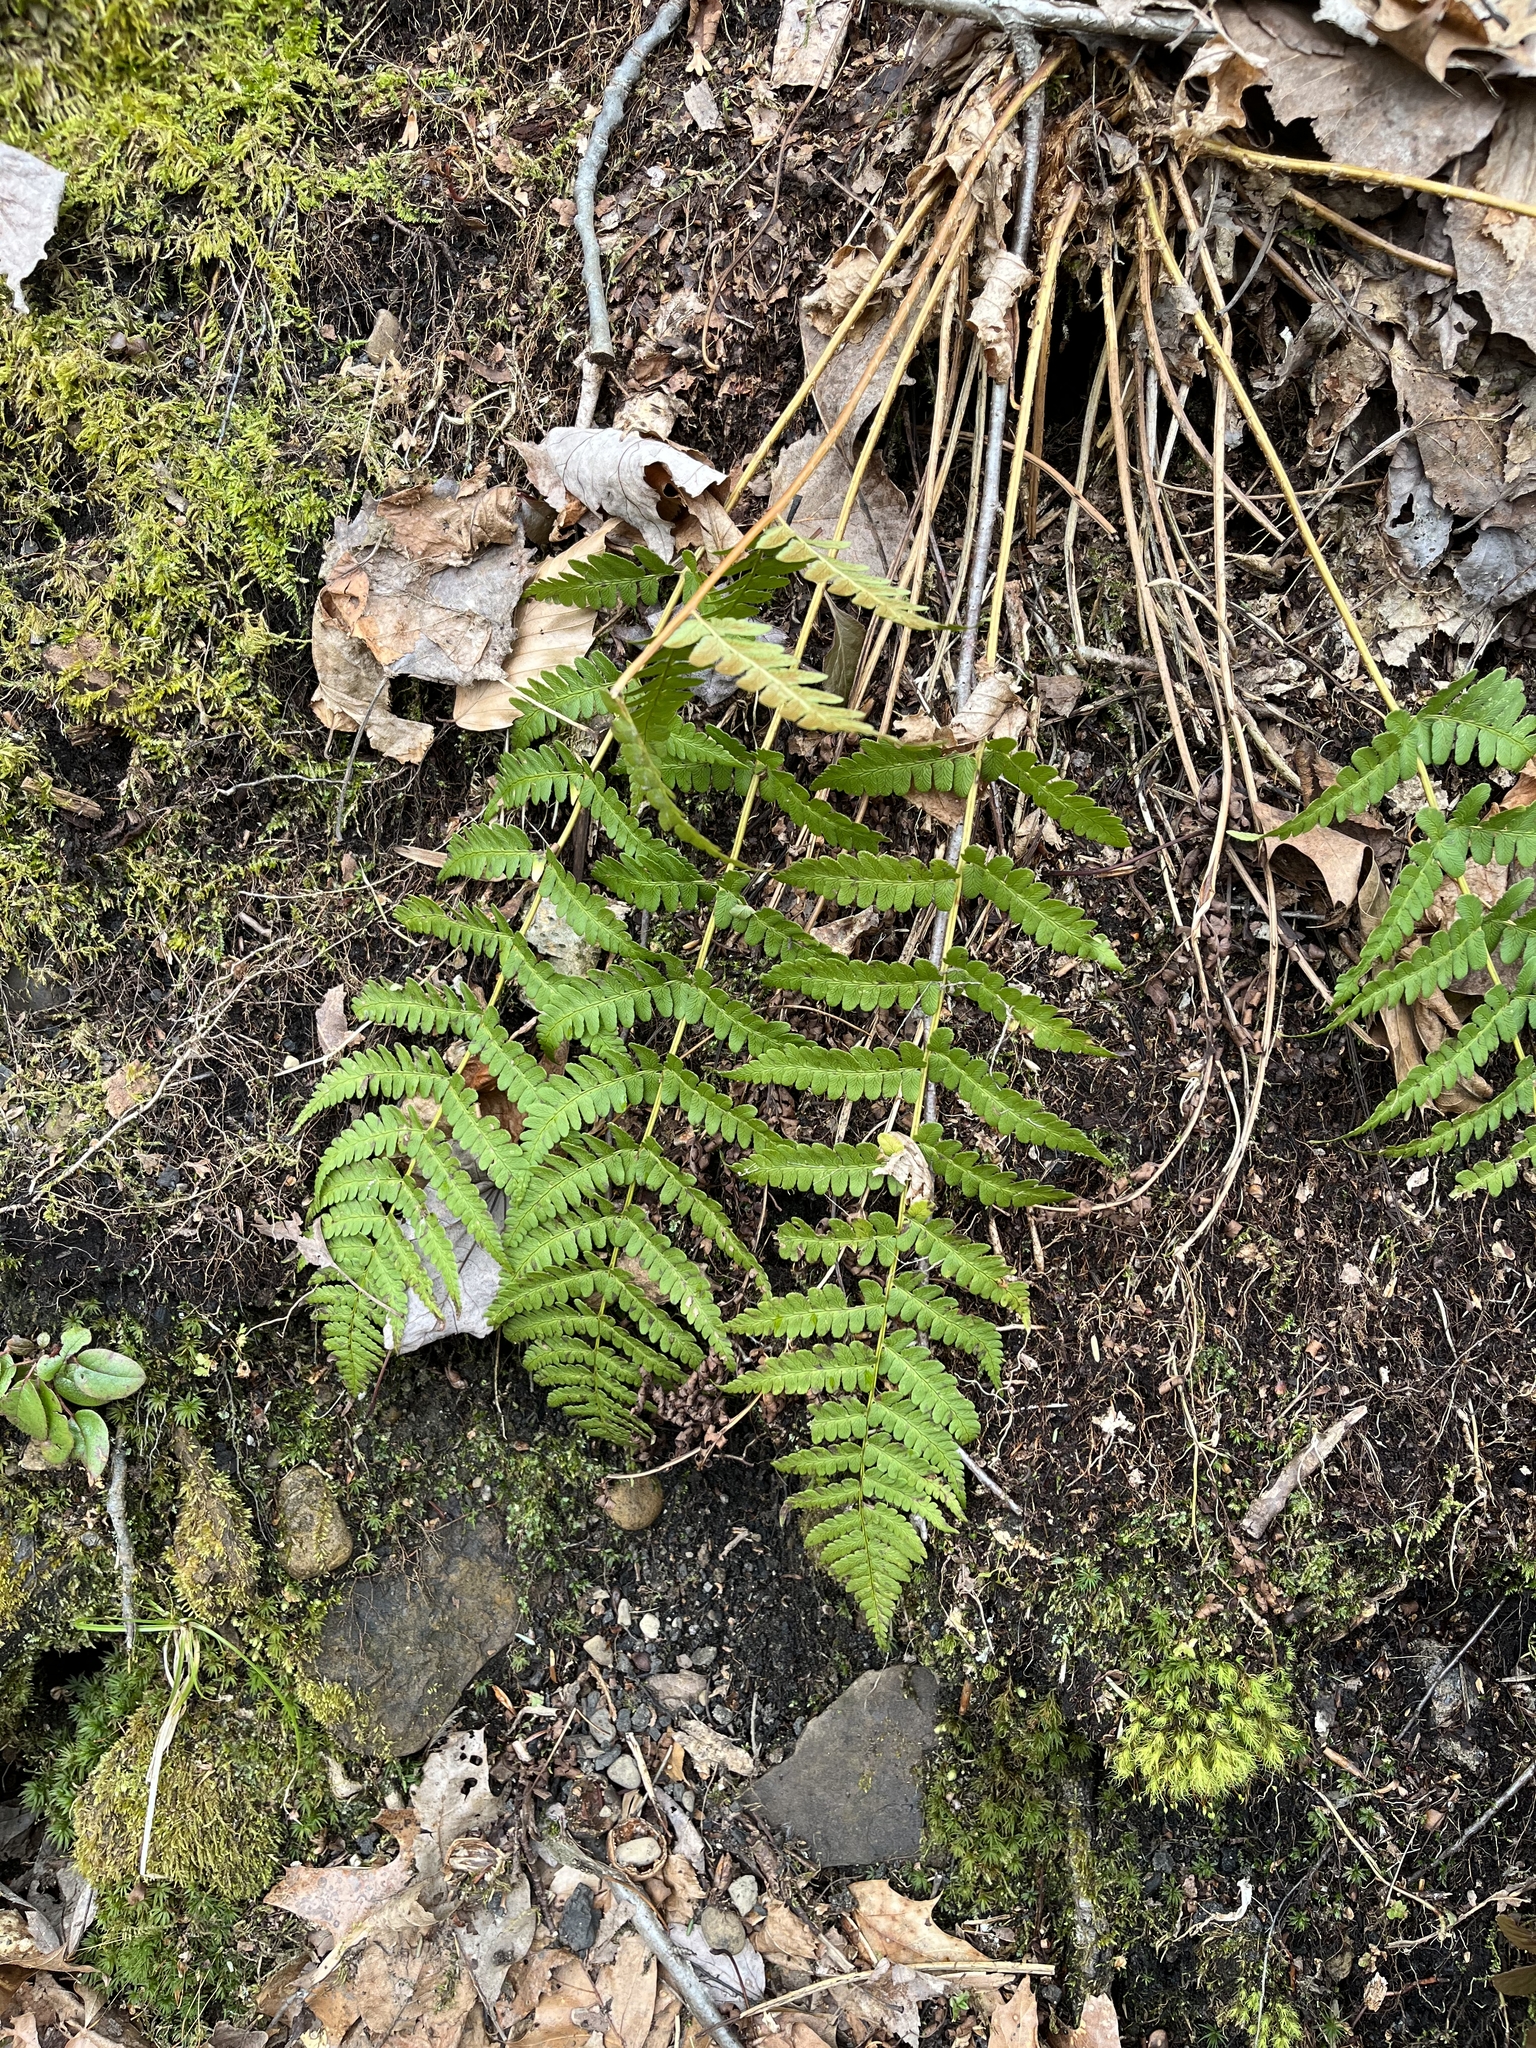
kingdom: Plantae
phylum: Tracheophyta
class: Polypodiopsida
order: Polypodiales
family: Dryopteridaceae
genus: Dryopteris
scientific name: Dryopteris marginalis
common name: Marginal wood fern
